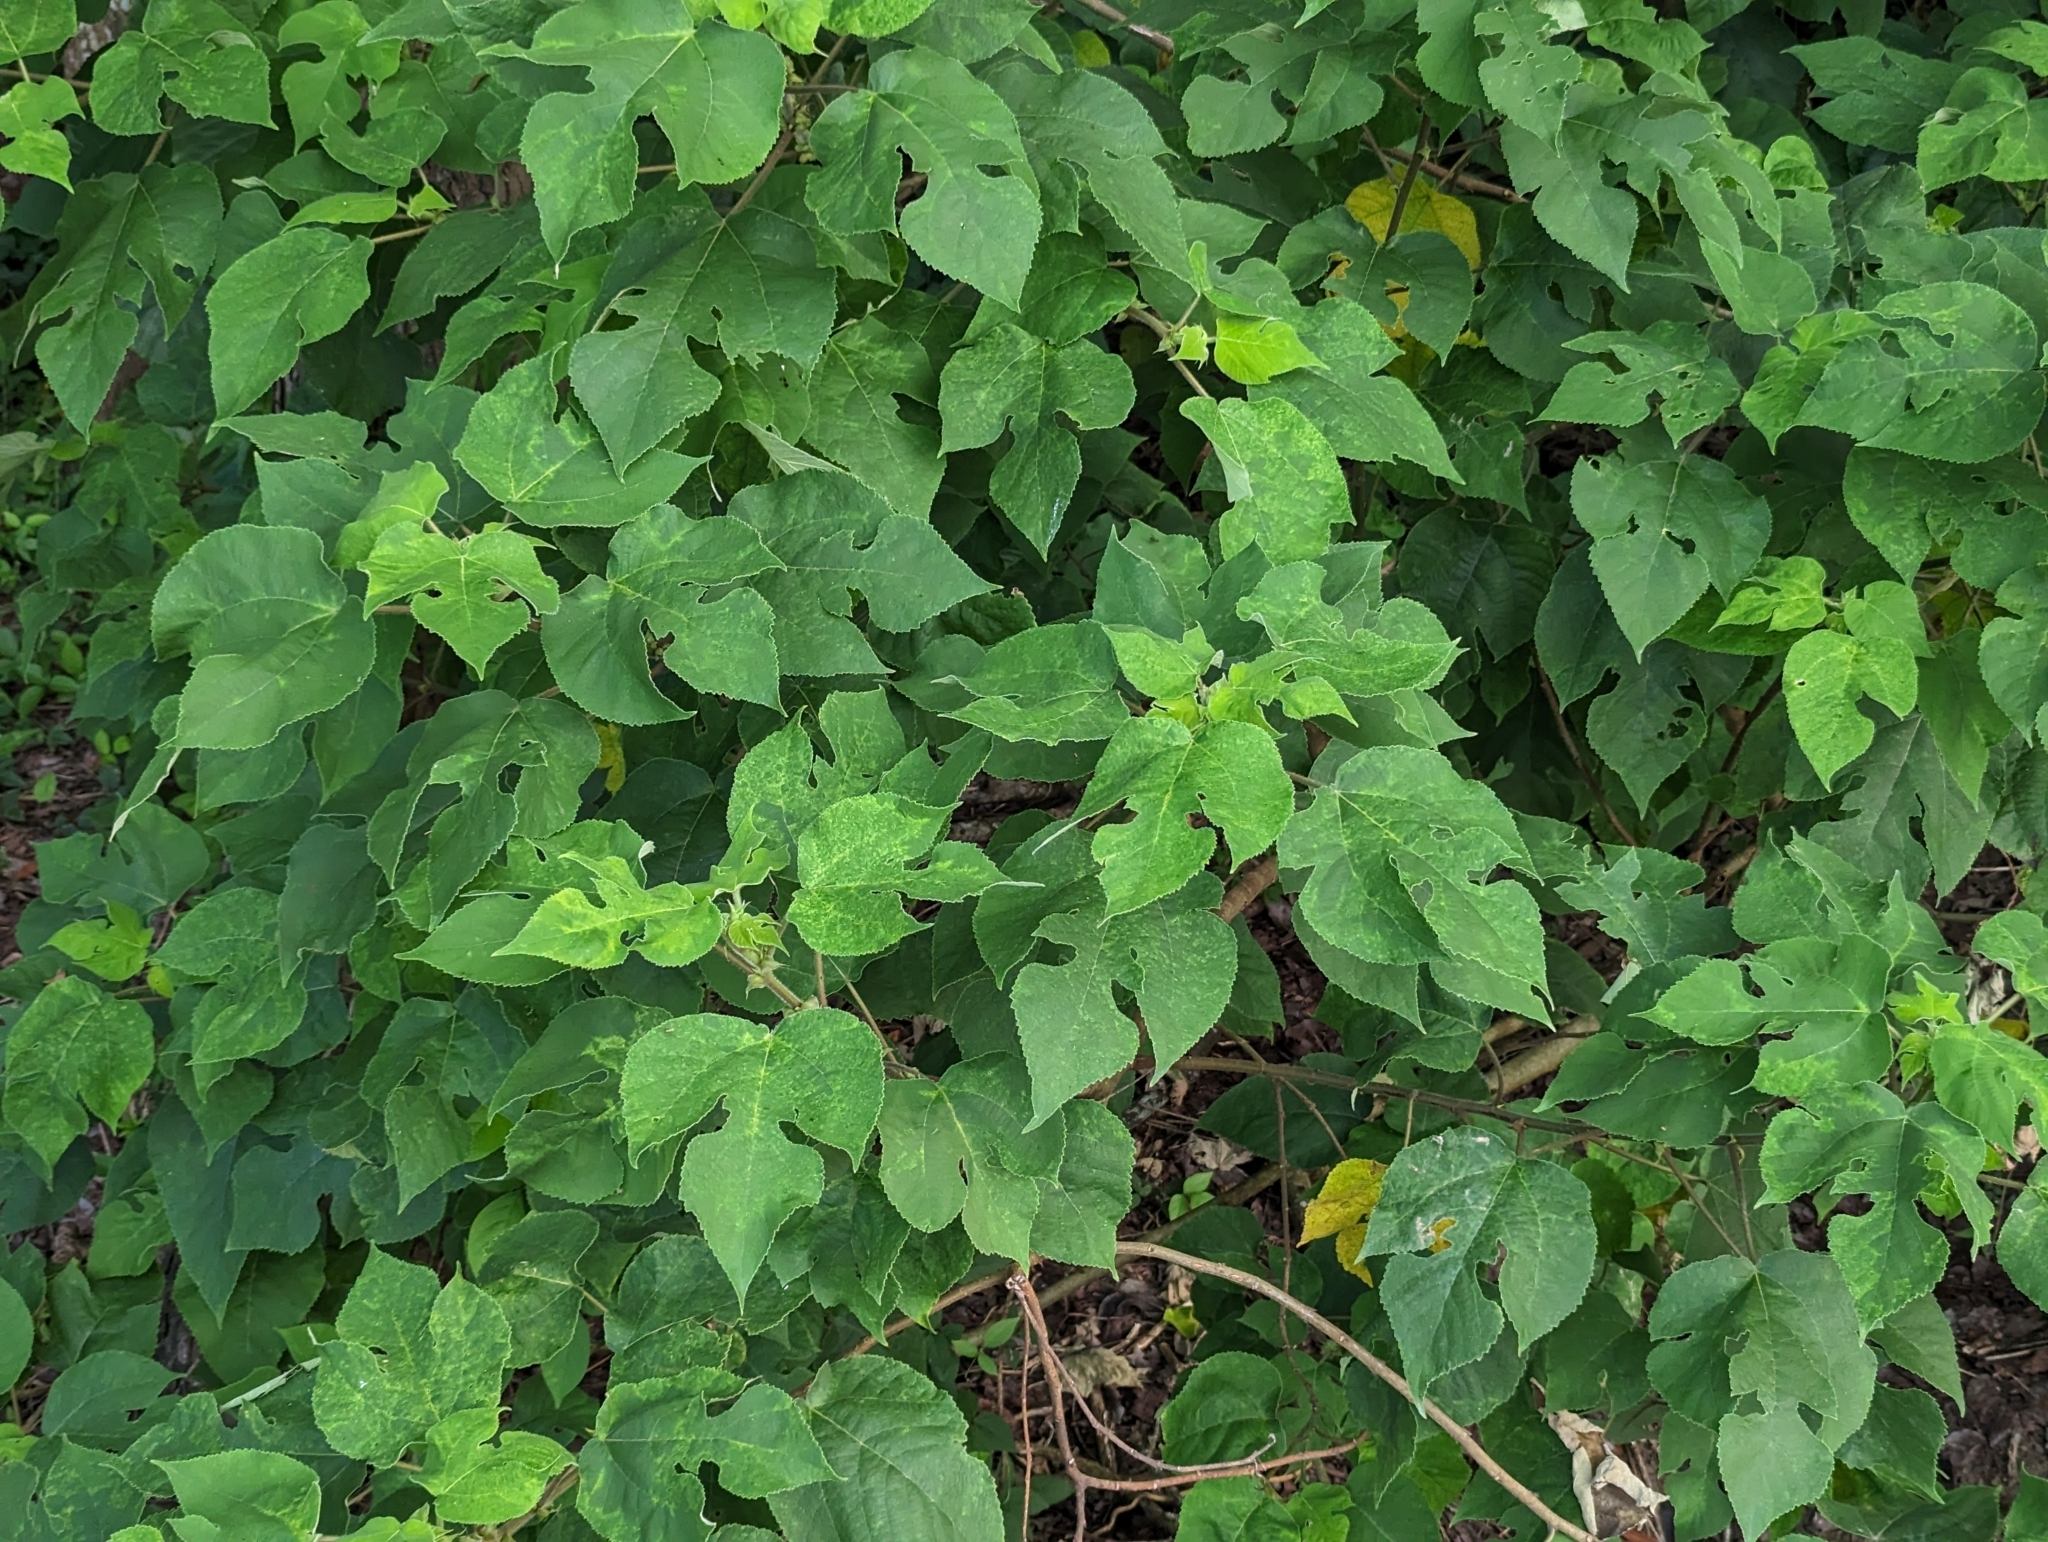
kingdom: Plantae
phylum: Tracheophyta
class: Magnoliopsida
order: Rosales
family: Moraceae
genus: Broussonetia
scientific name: Broussonetia papyrifera
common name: Paper mulberry
